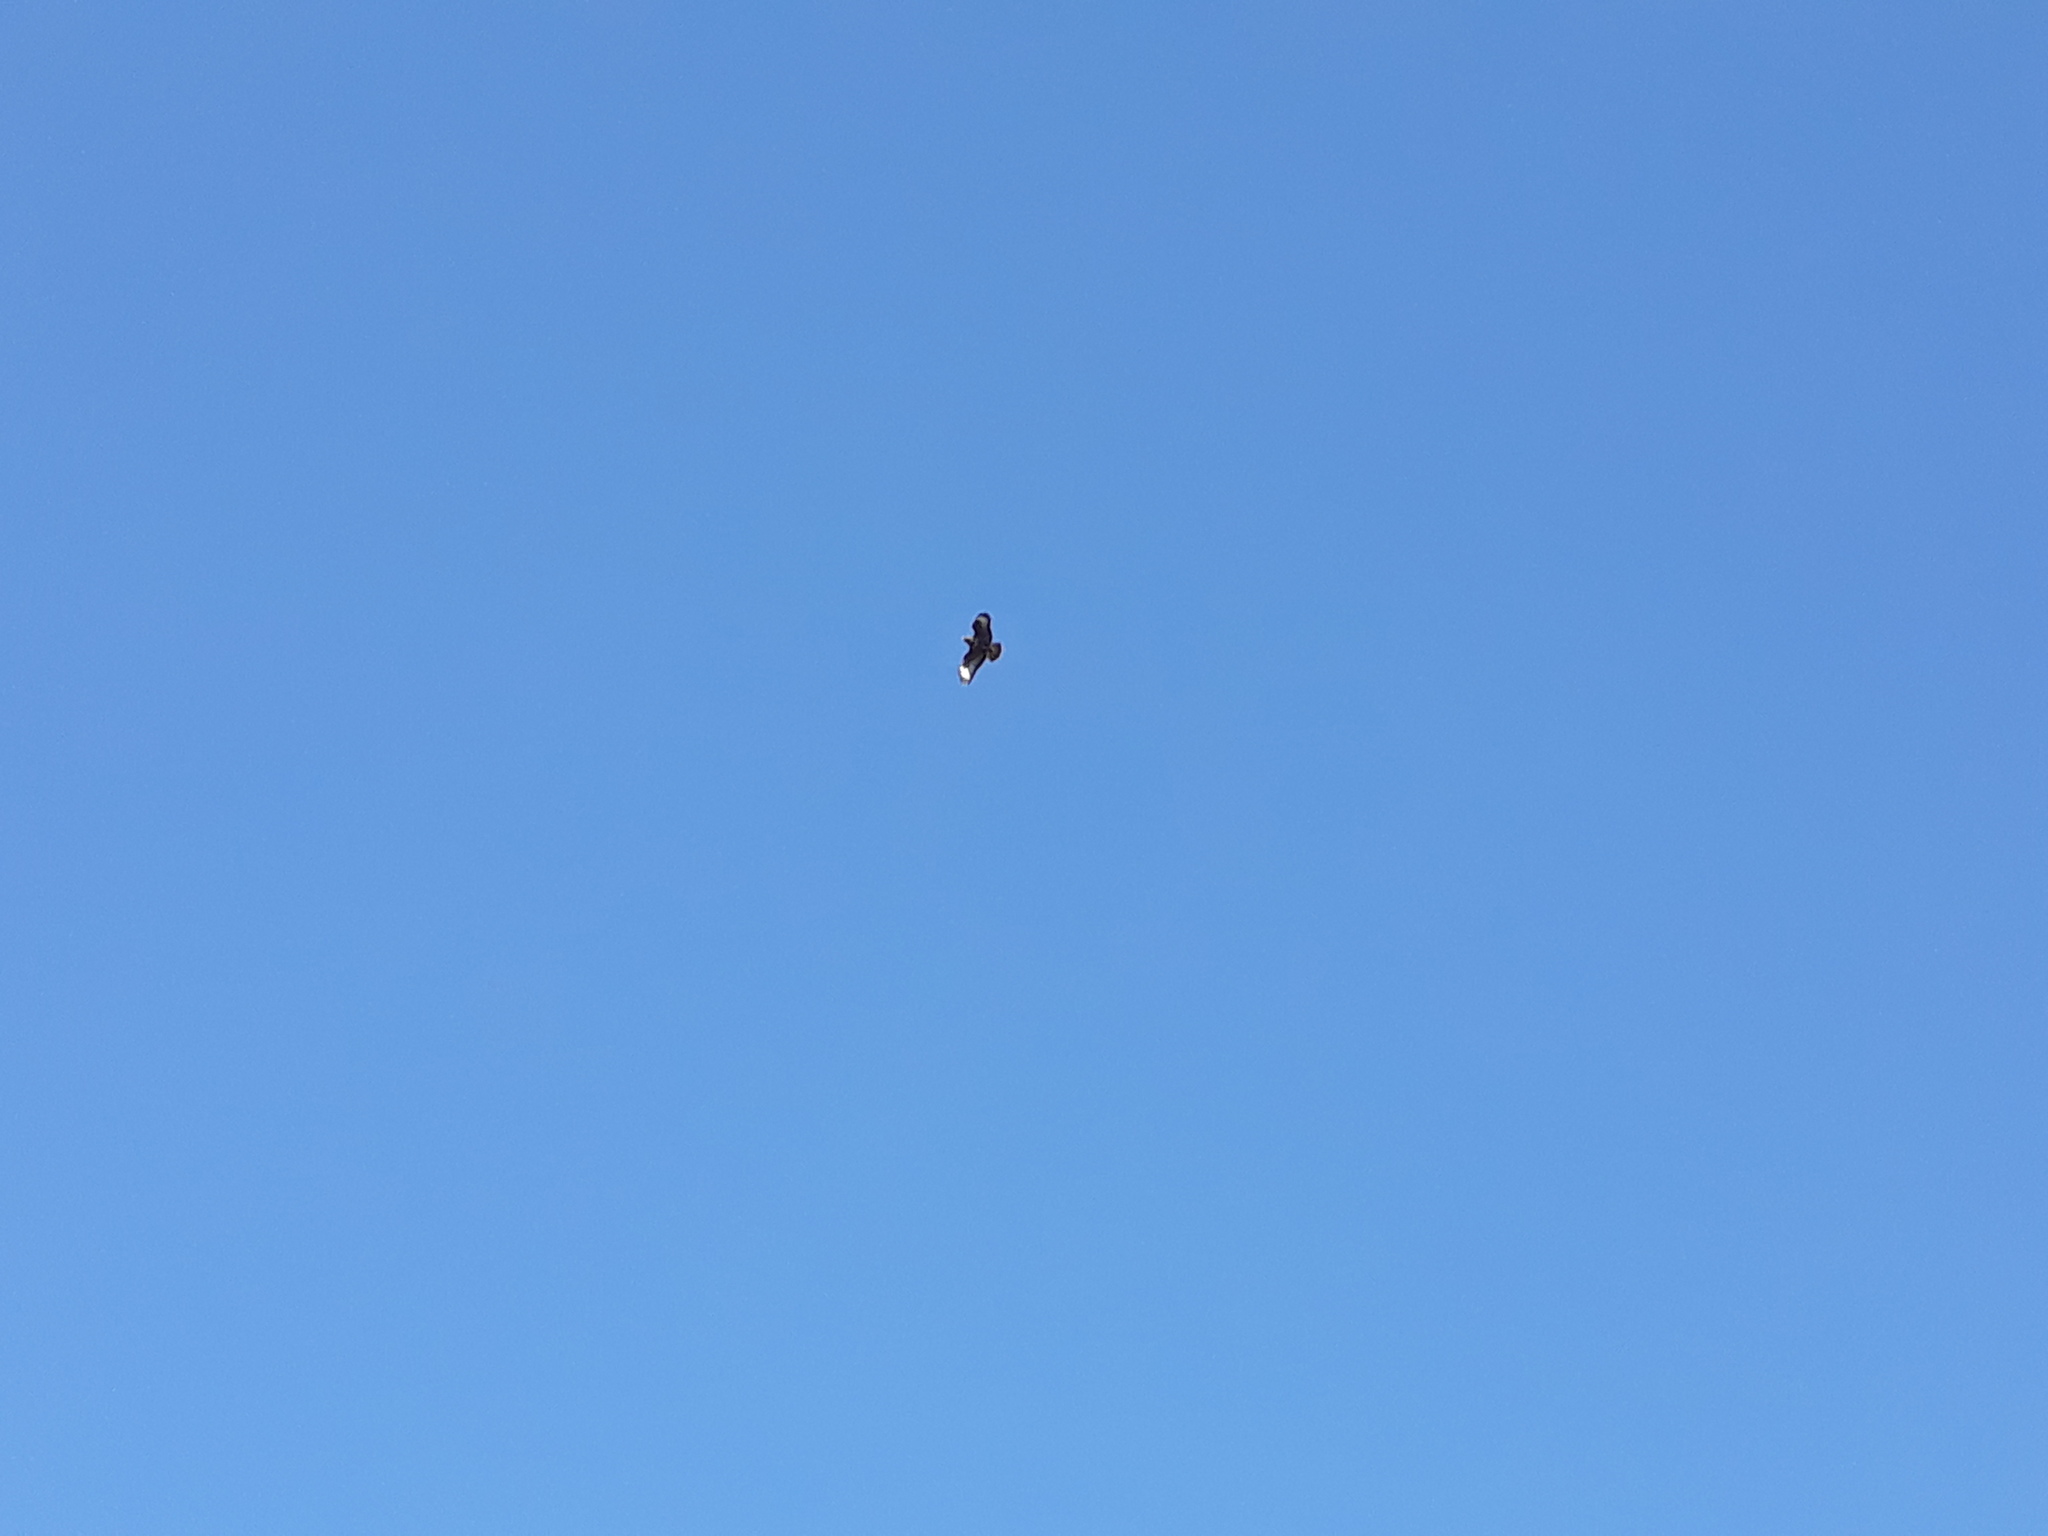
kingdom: Animalia
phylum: Chordata
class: Aves
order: Accipitriformes
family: Accipitridae
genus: Buteo
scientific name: Buteo buteo
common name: Common buzzard
